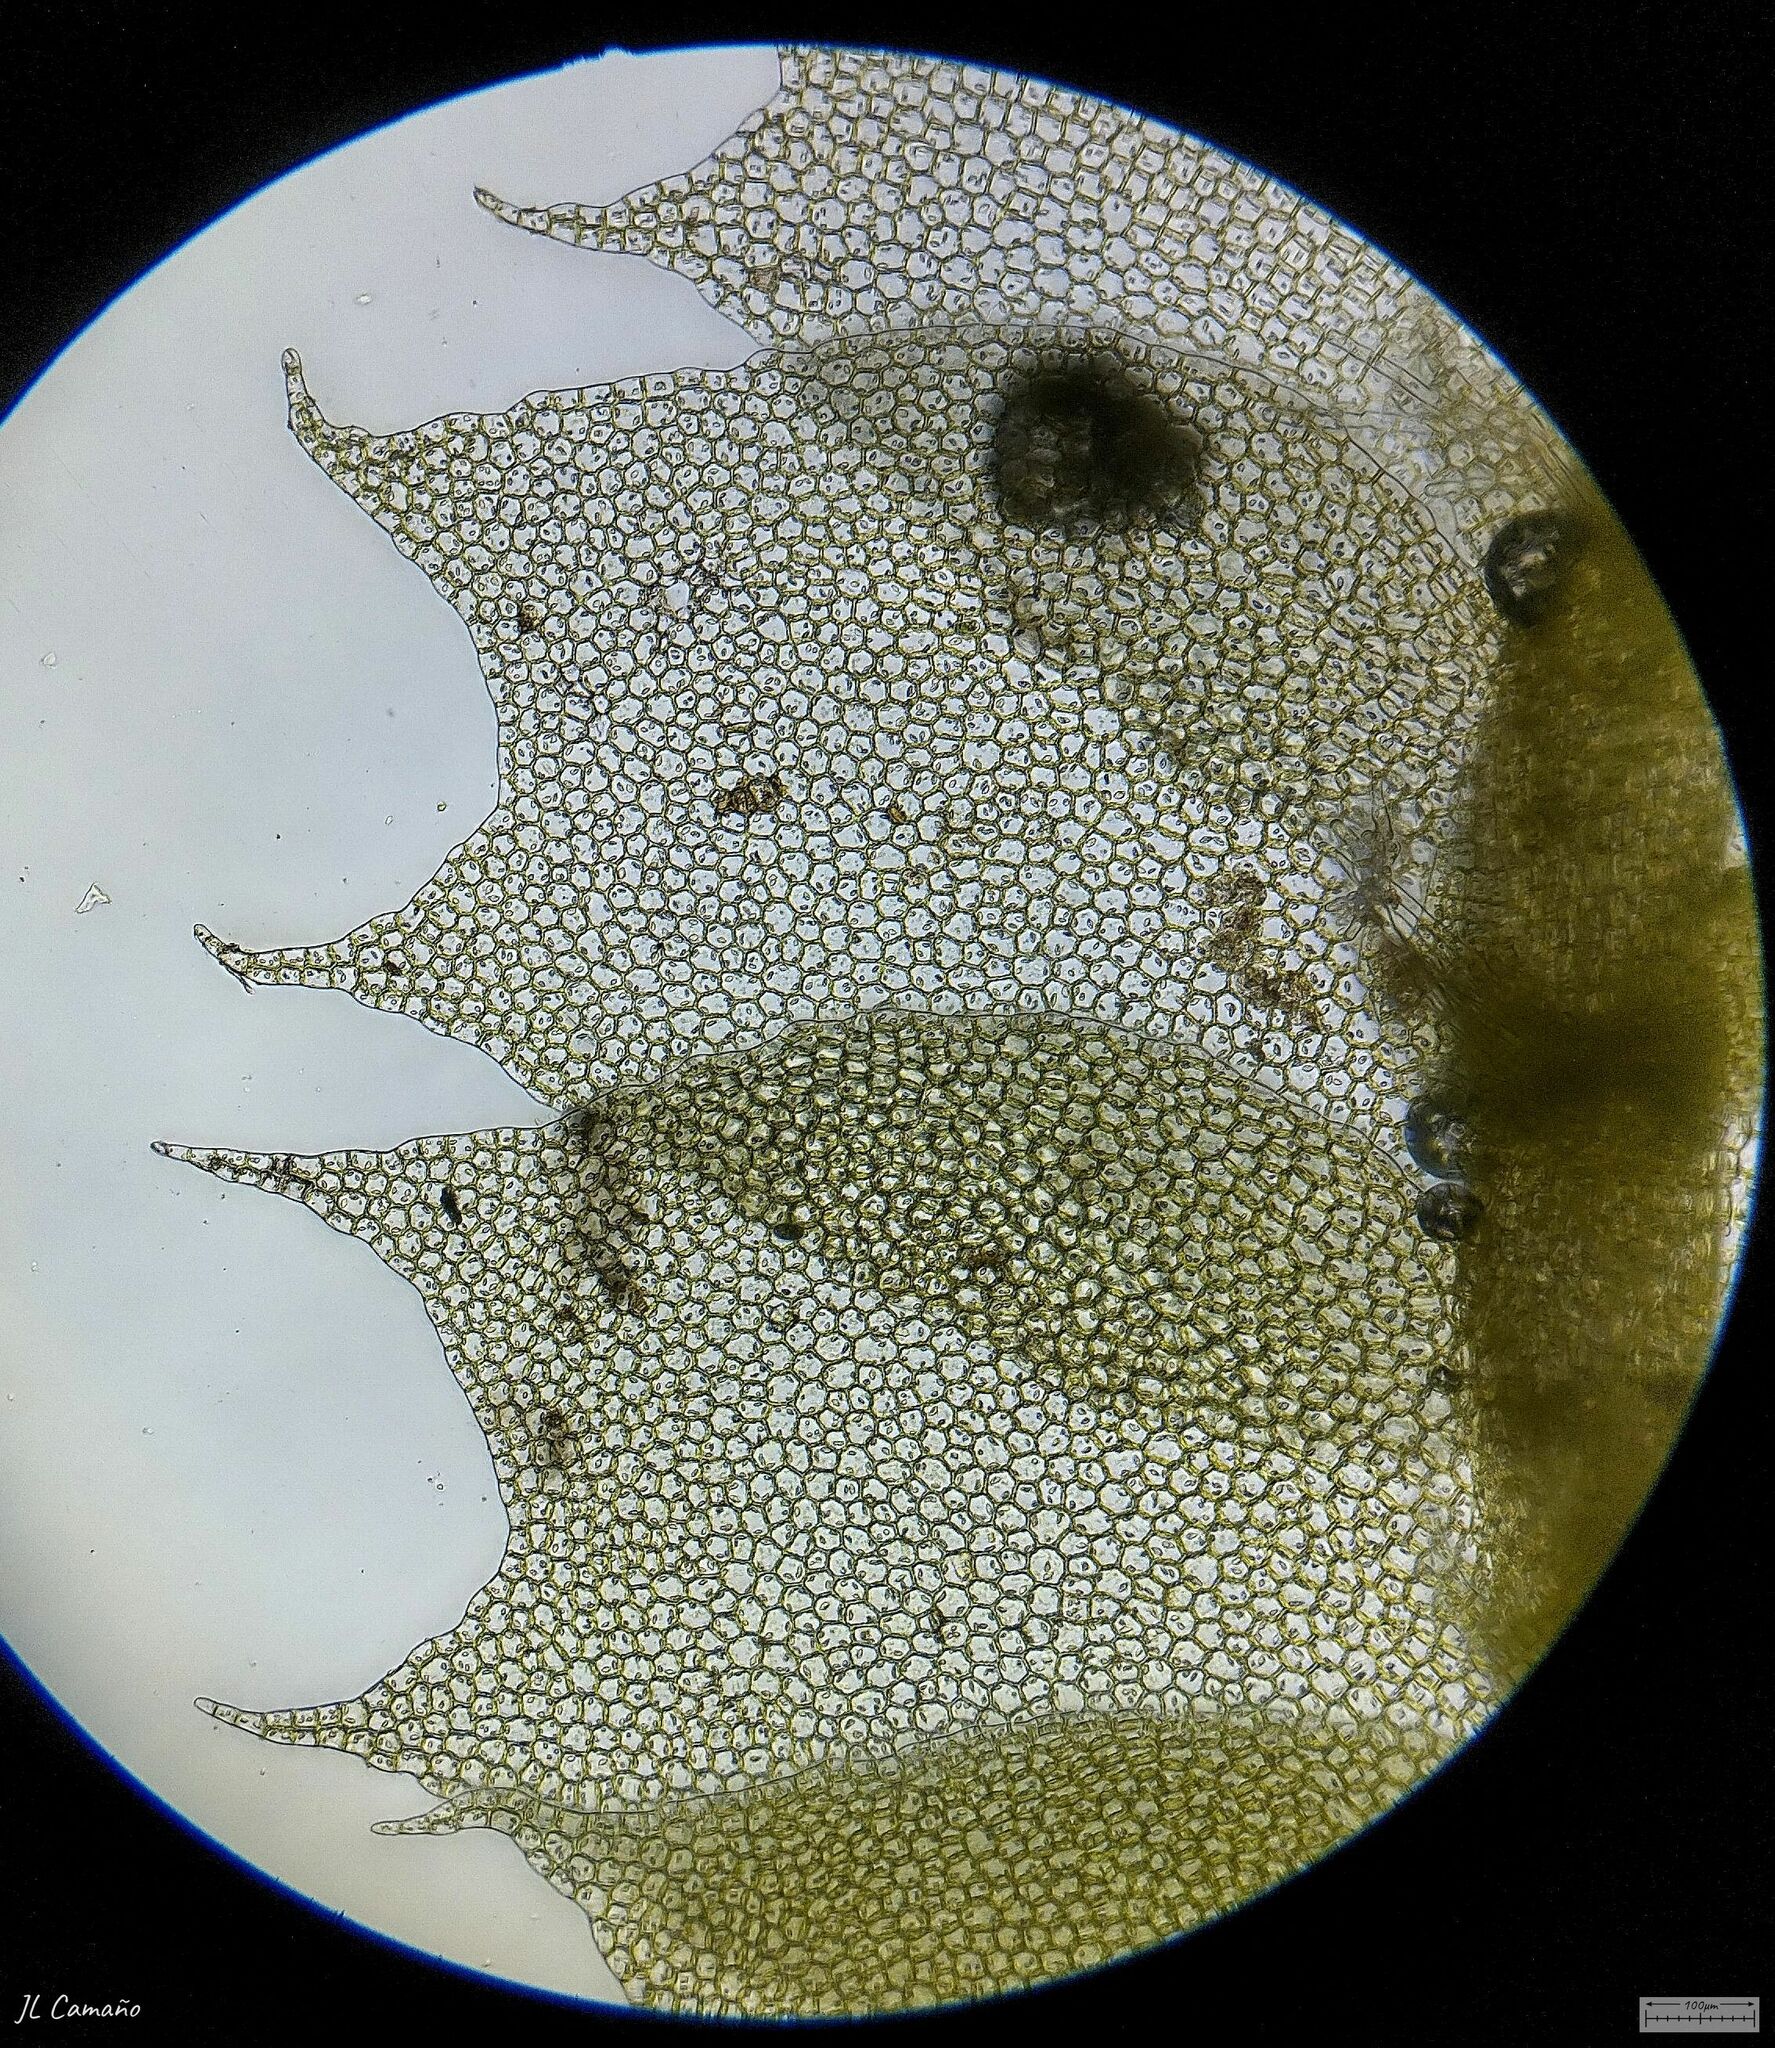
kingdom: Plantae
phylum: Marchantiophyta
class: Jungermanniopsida
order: Jungermanniales
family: Lophocoleaceae
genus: Lophocolea
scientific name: Lophocolea bidentata
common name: Bifid crestwort
